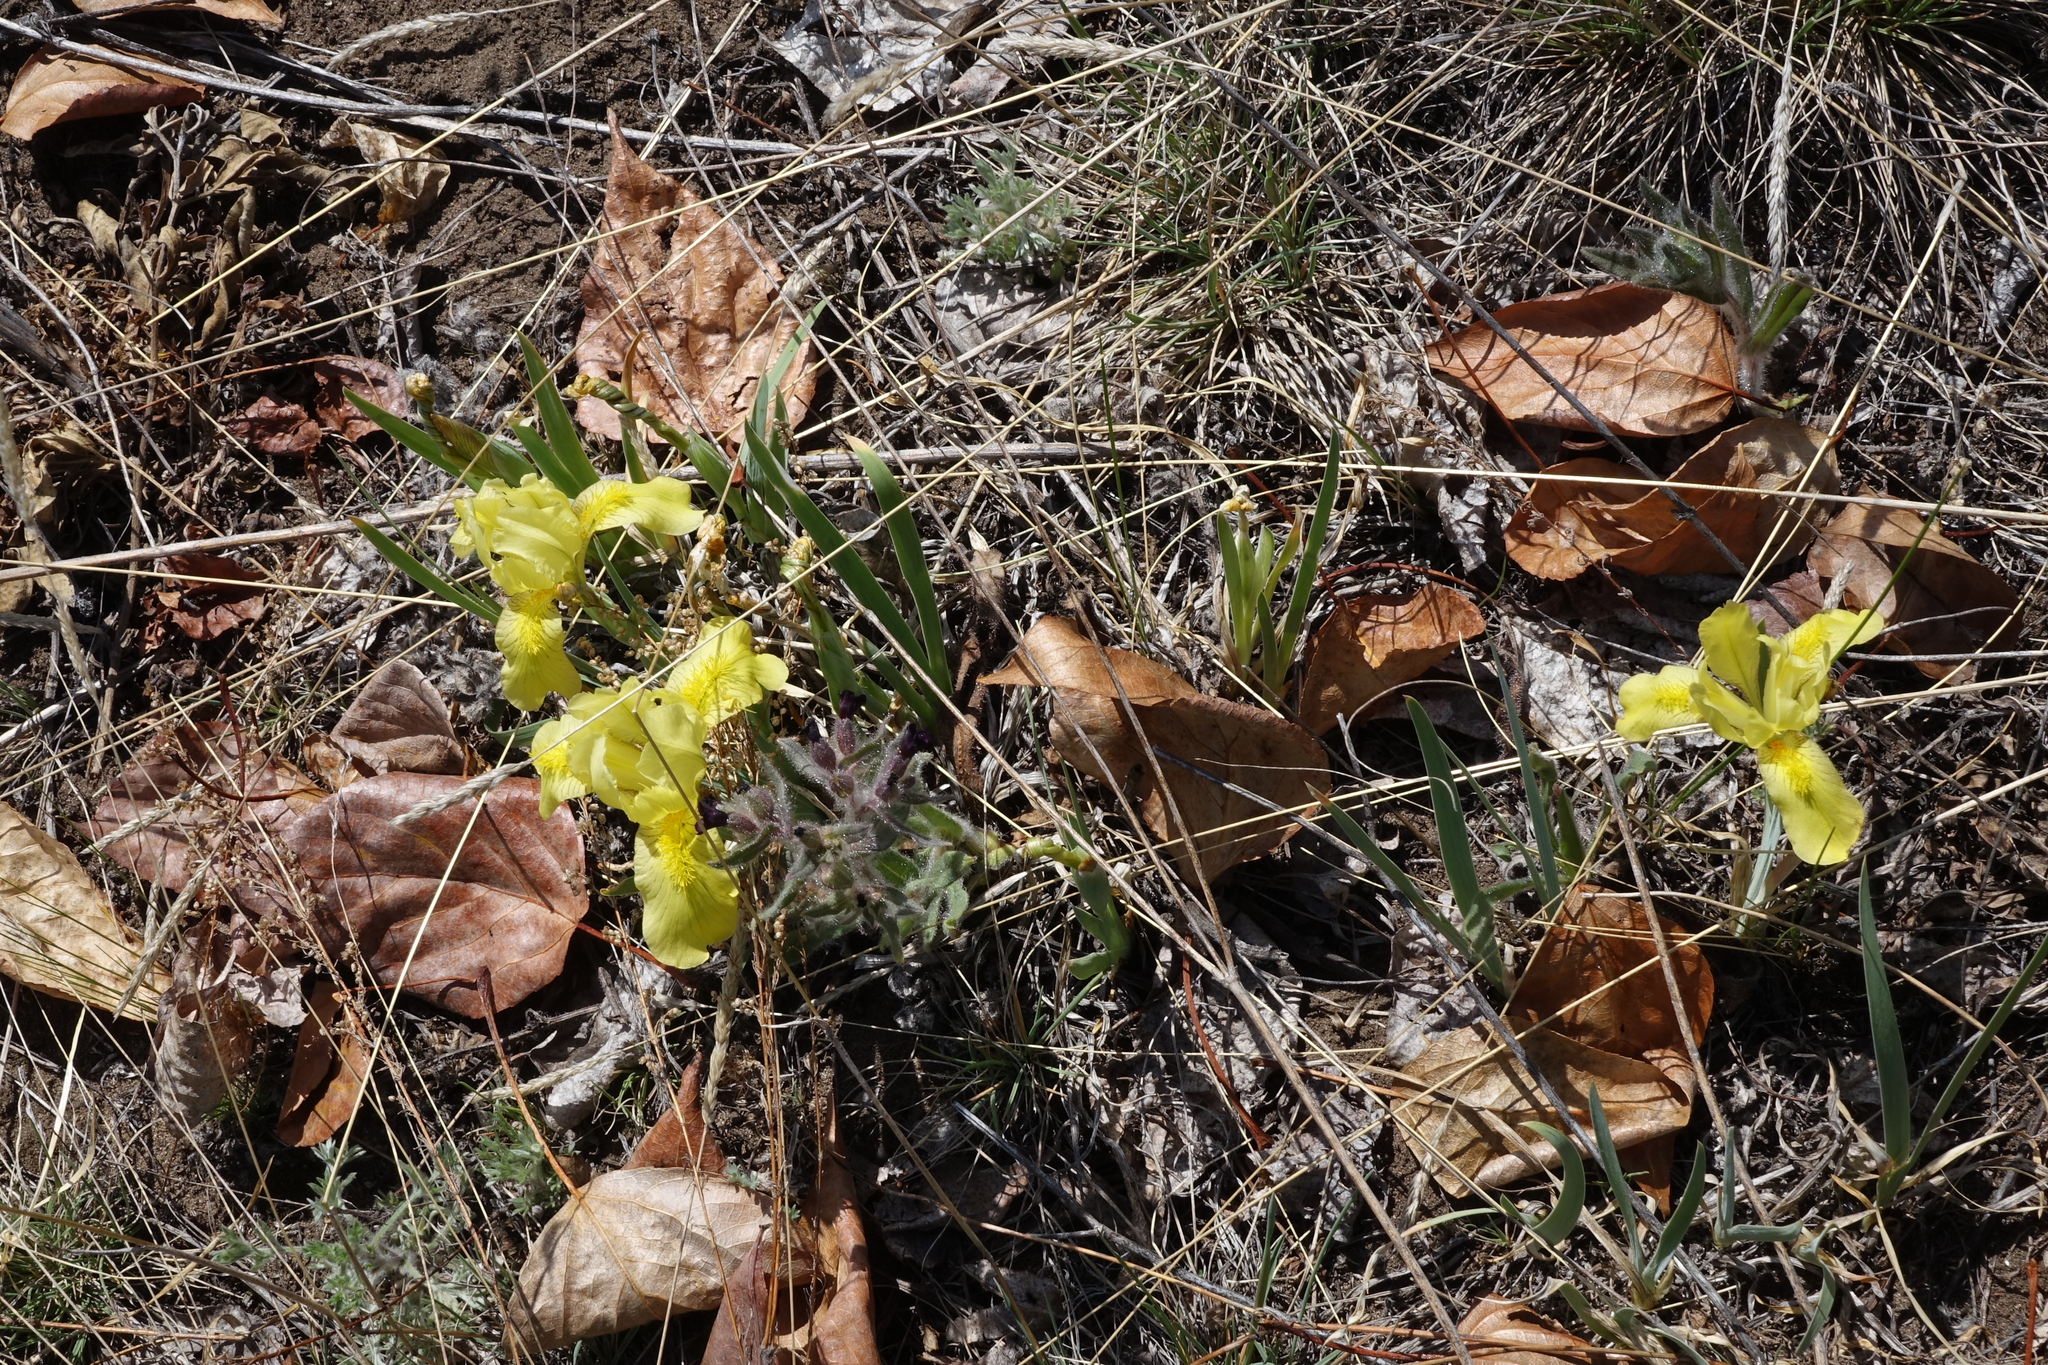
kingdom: Plantae
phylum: Tracheophyta
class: Liliopsida
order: Asparagales
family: Iridaceae
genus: Iris
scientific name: Iris humilis
